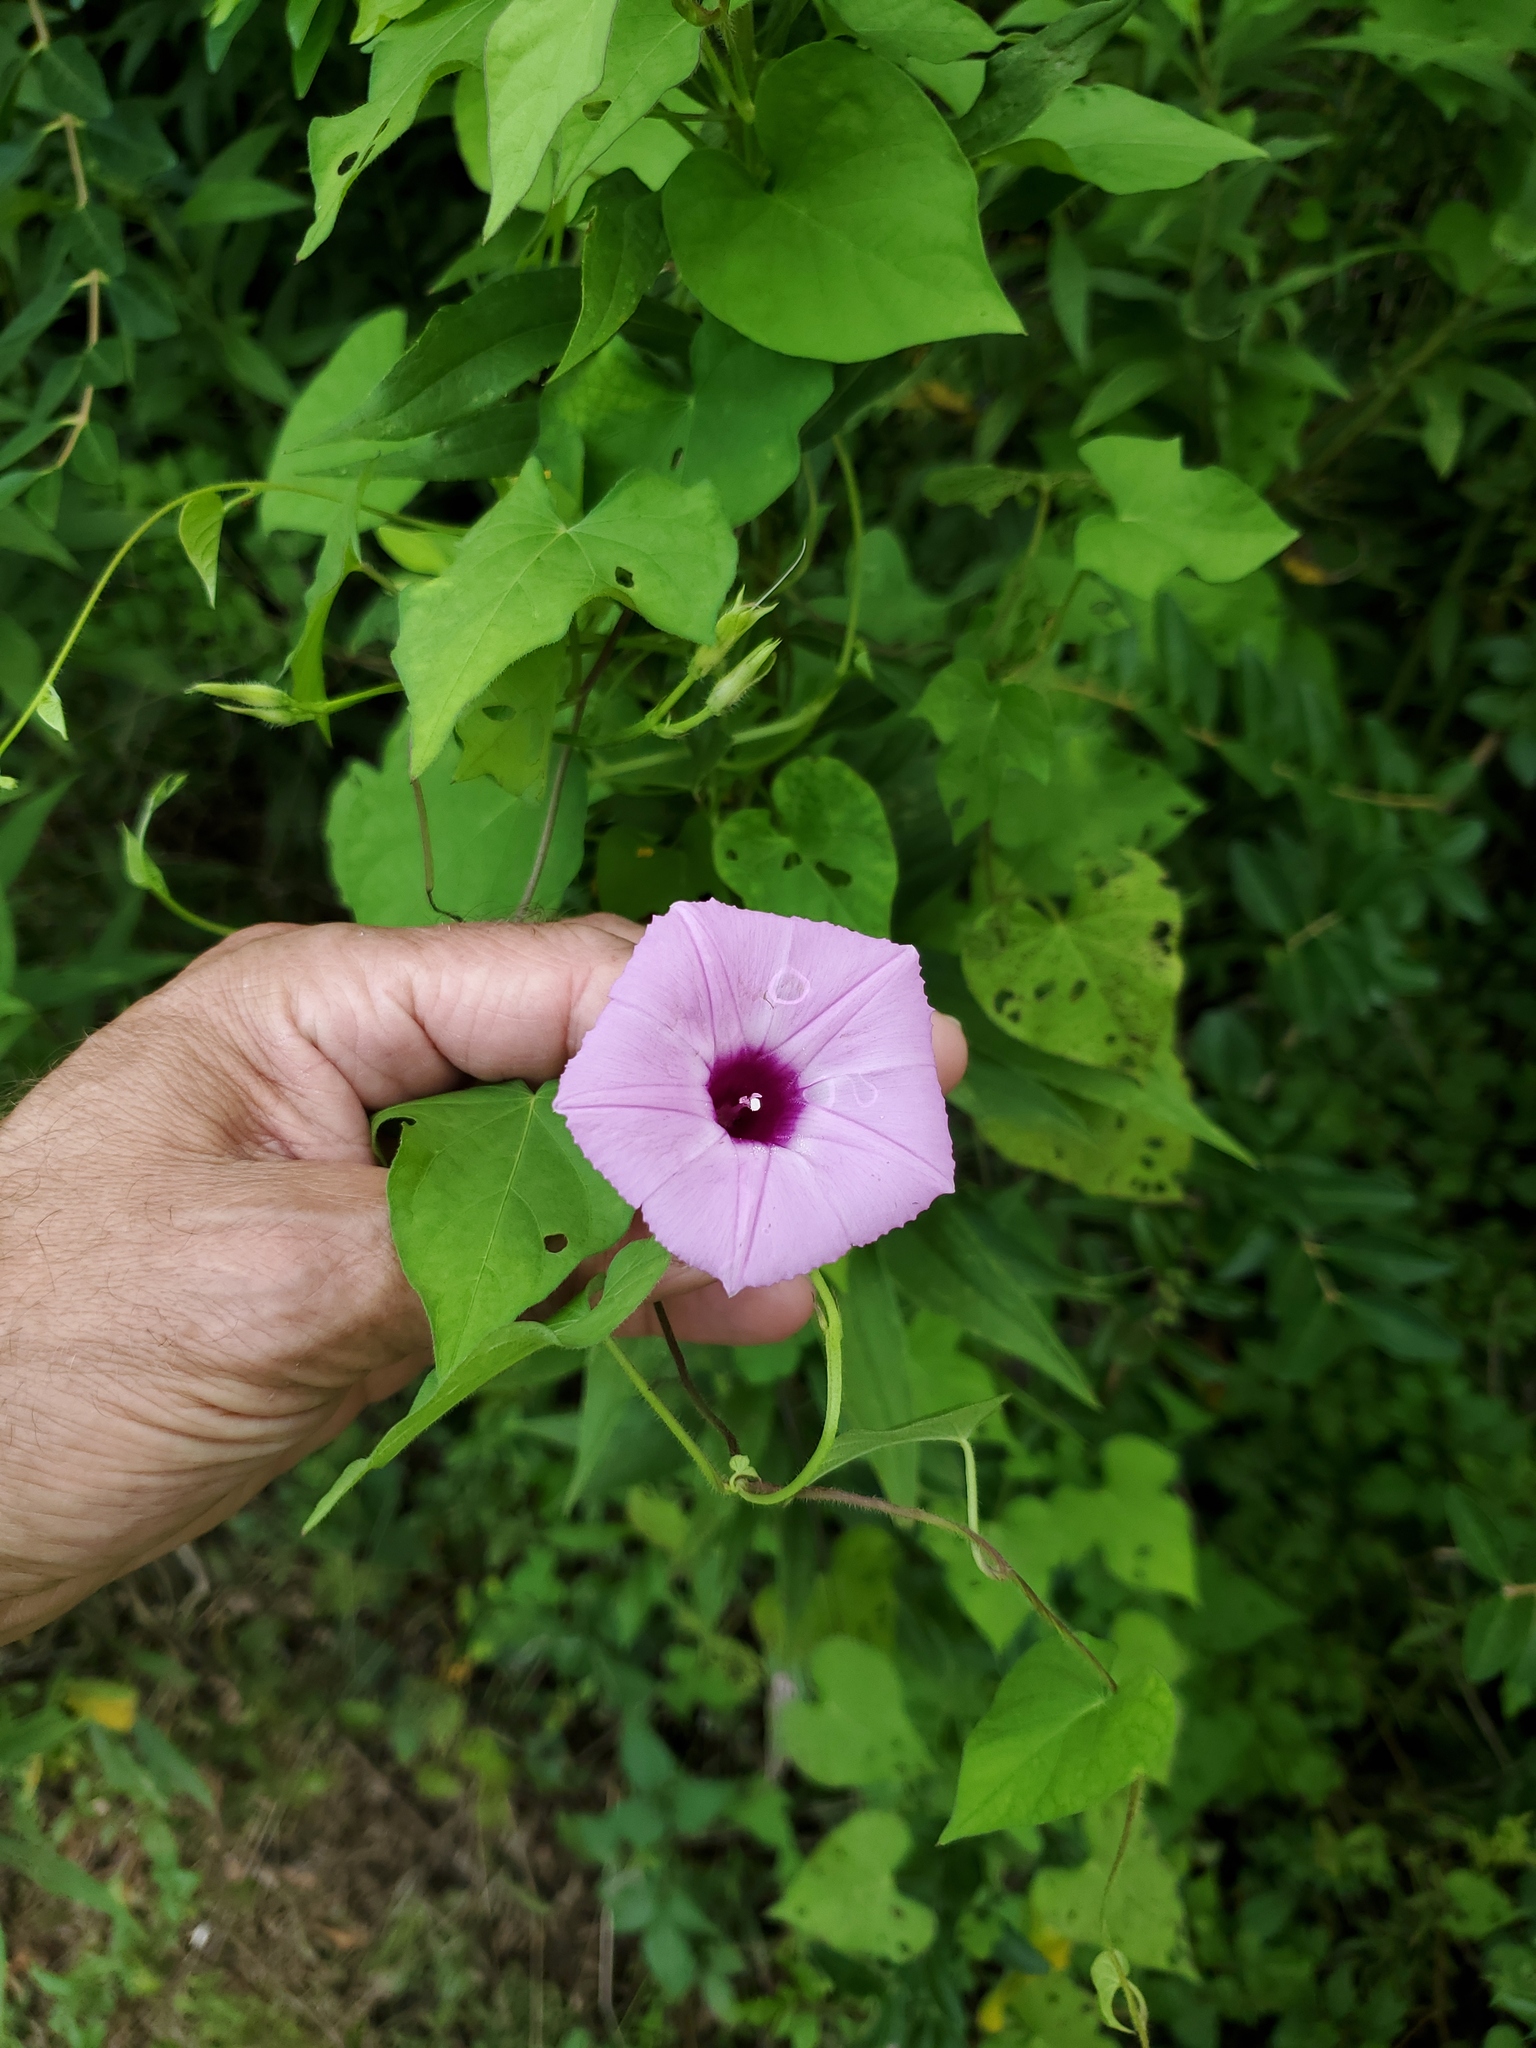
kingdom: Plantae
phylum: Tracheophyta
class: Magnoliopsida
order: Solanales
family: Convolvulaceae
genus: Ipomoea
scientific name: Ipomoea cordatotriloba
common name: Cotton morning glory
